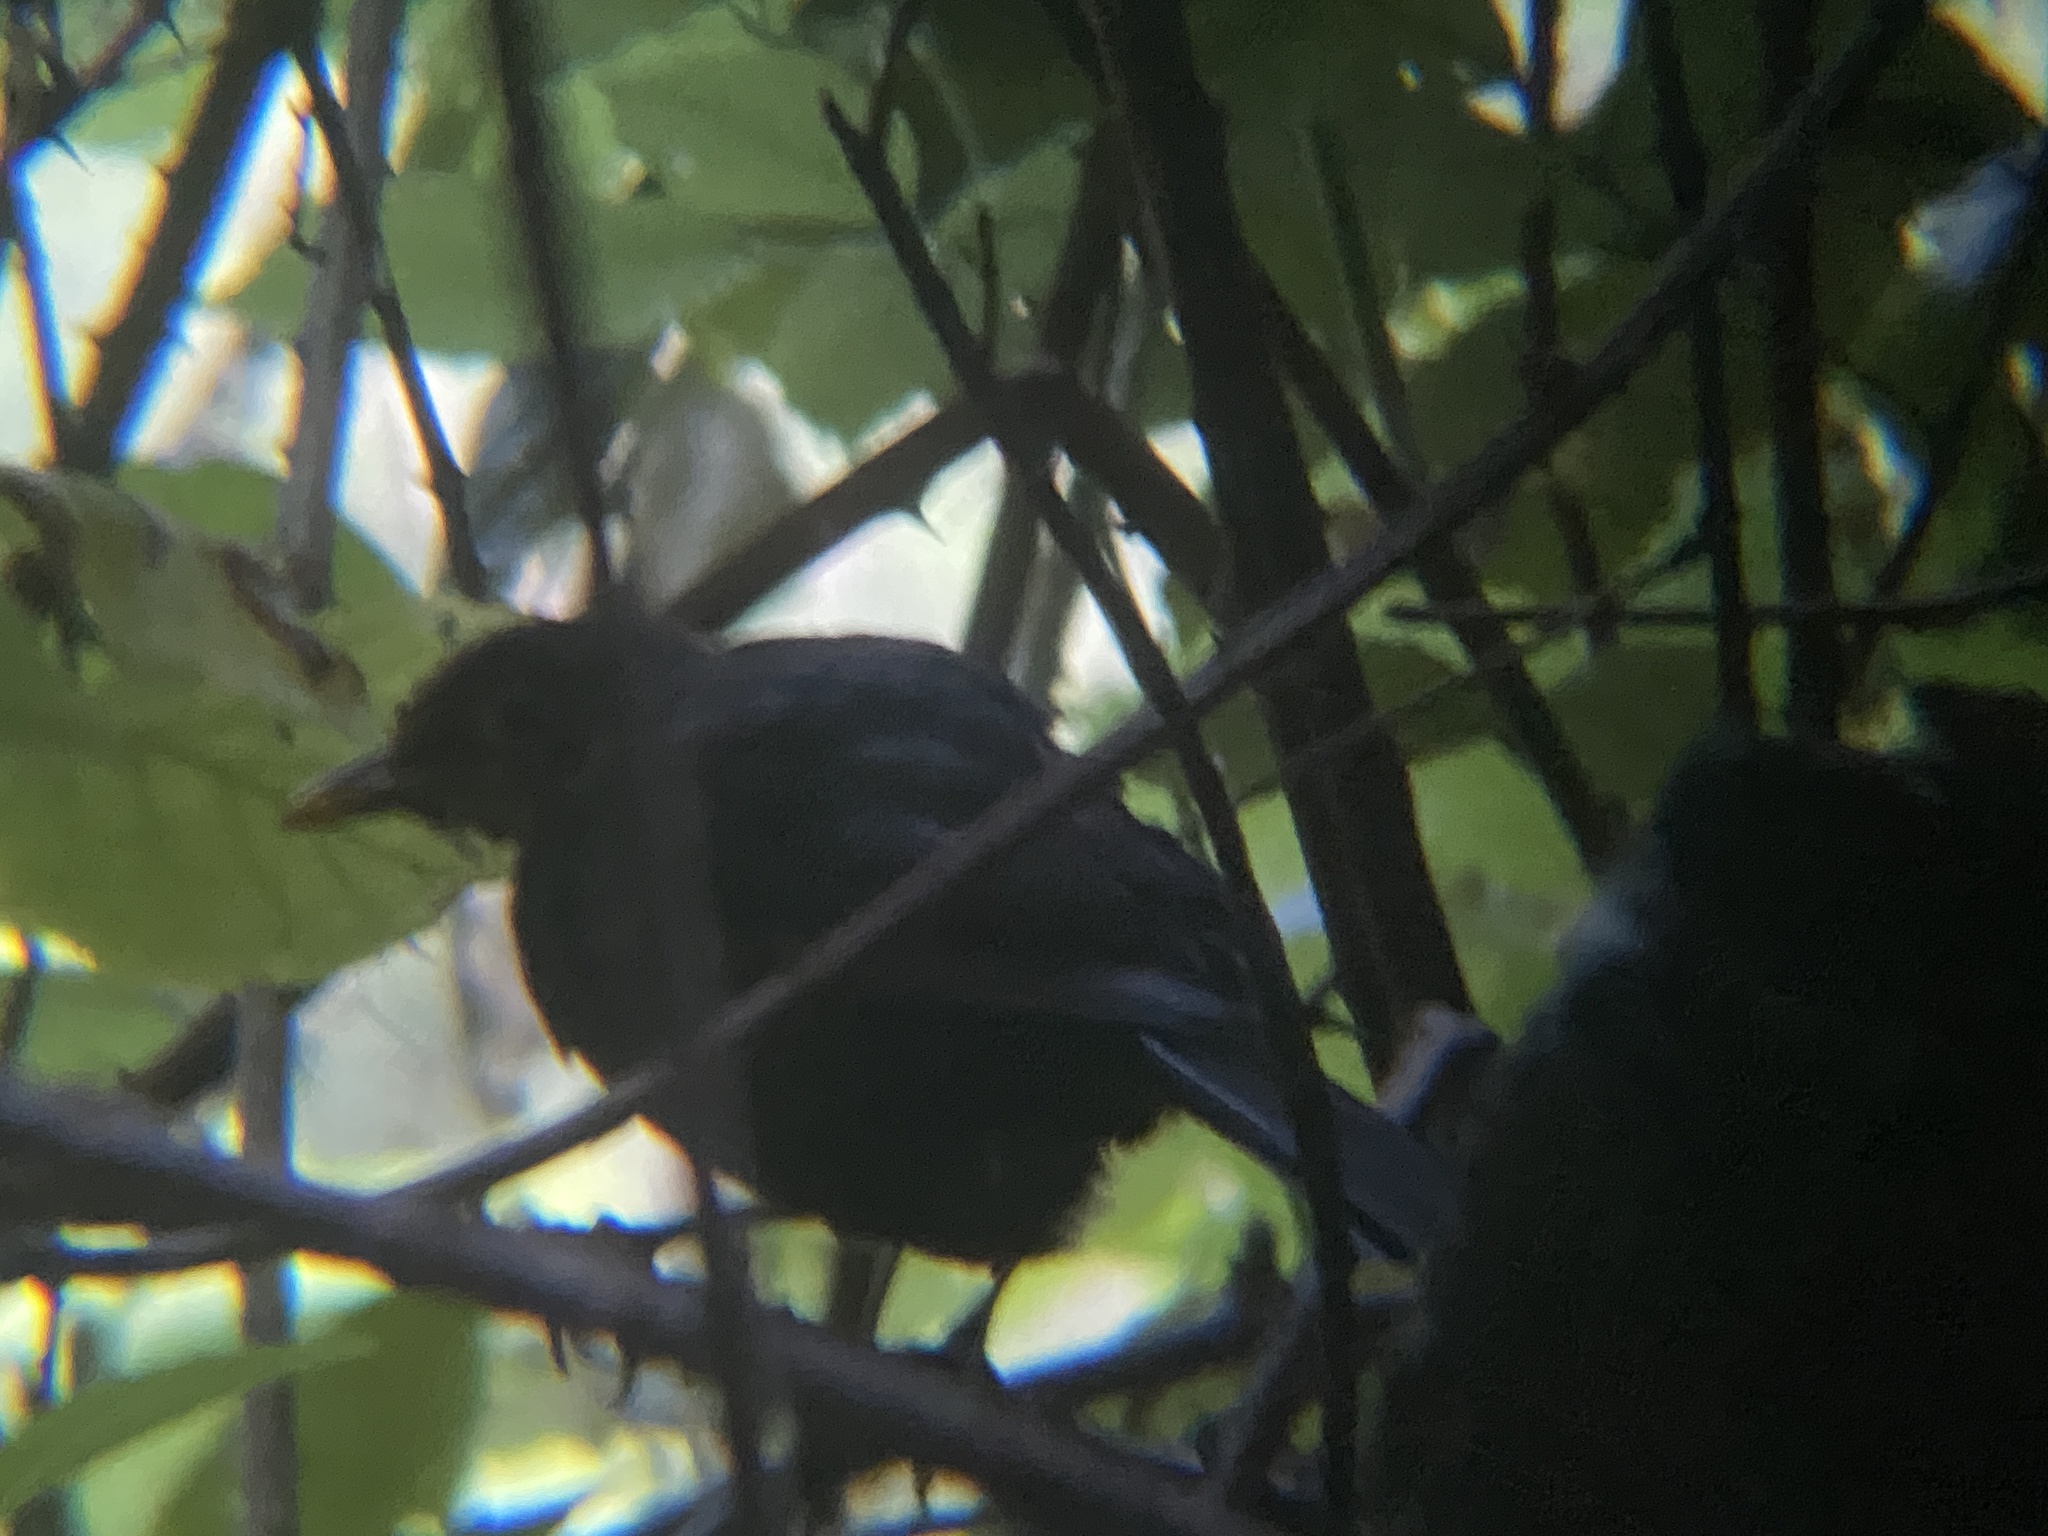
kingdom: Animalia
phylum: Chordata
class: Aves
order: Passeriformes
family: Turdidae
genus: Turdus
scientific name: Turdus merula
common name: Common blackbird
